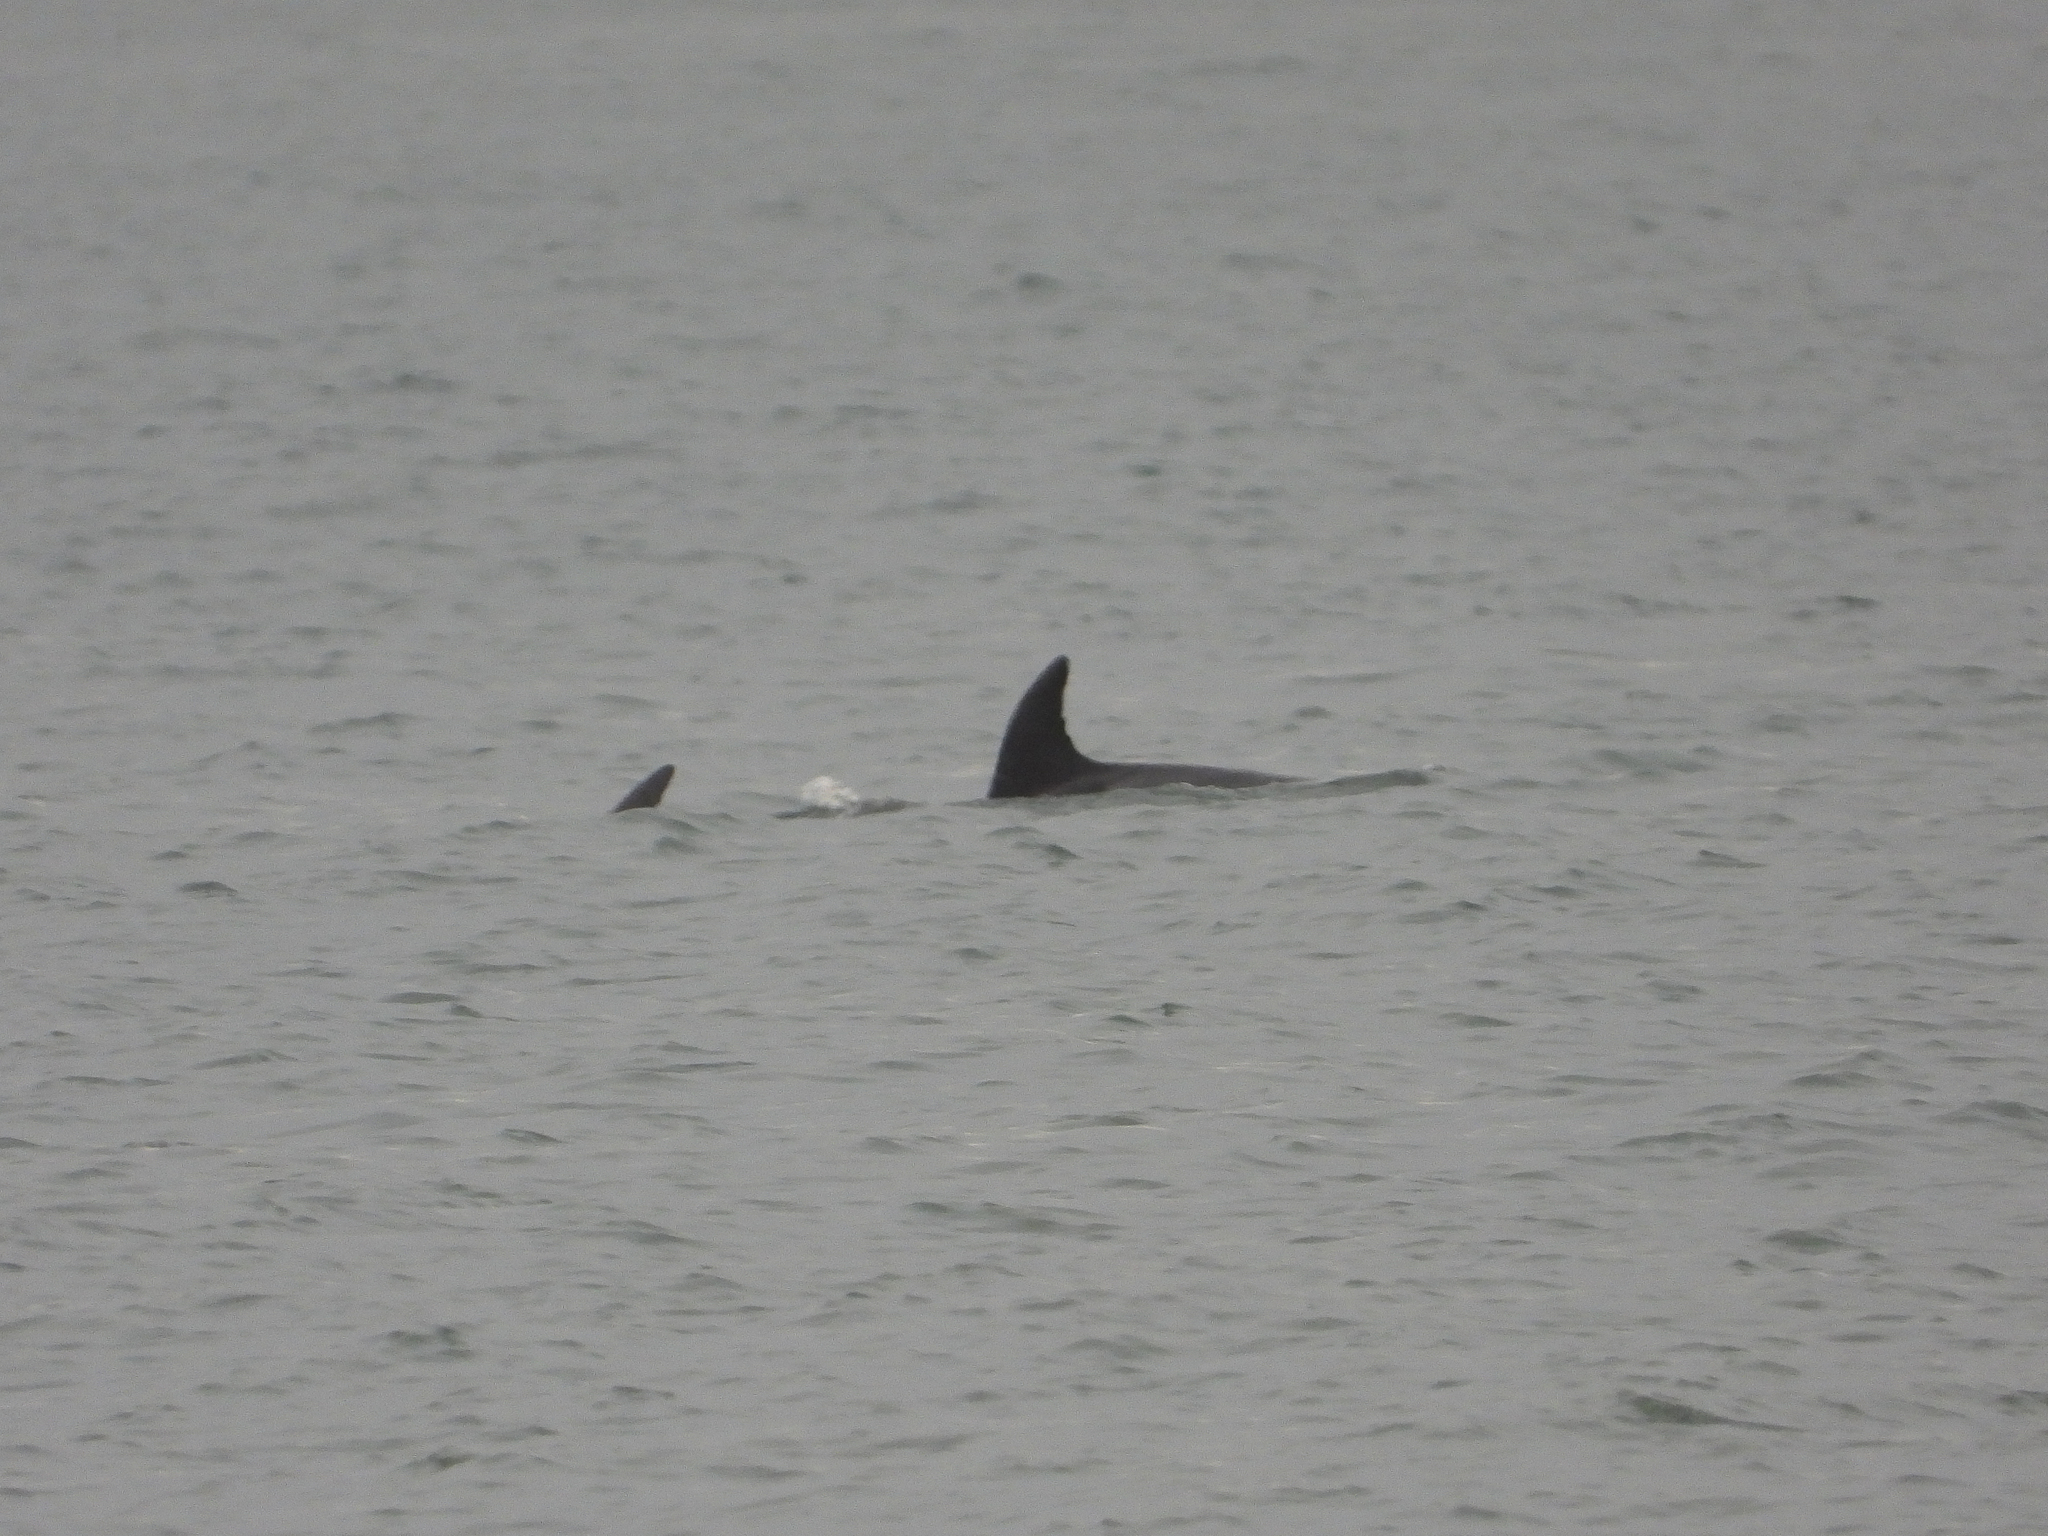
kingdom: Animalia
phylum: Chordata
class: Mammalia
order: Cetacea
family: Delphinidae
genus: Tursiops
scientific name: Tursiops truncatus
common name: Bottlenose dolphin
